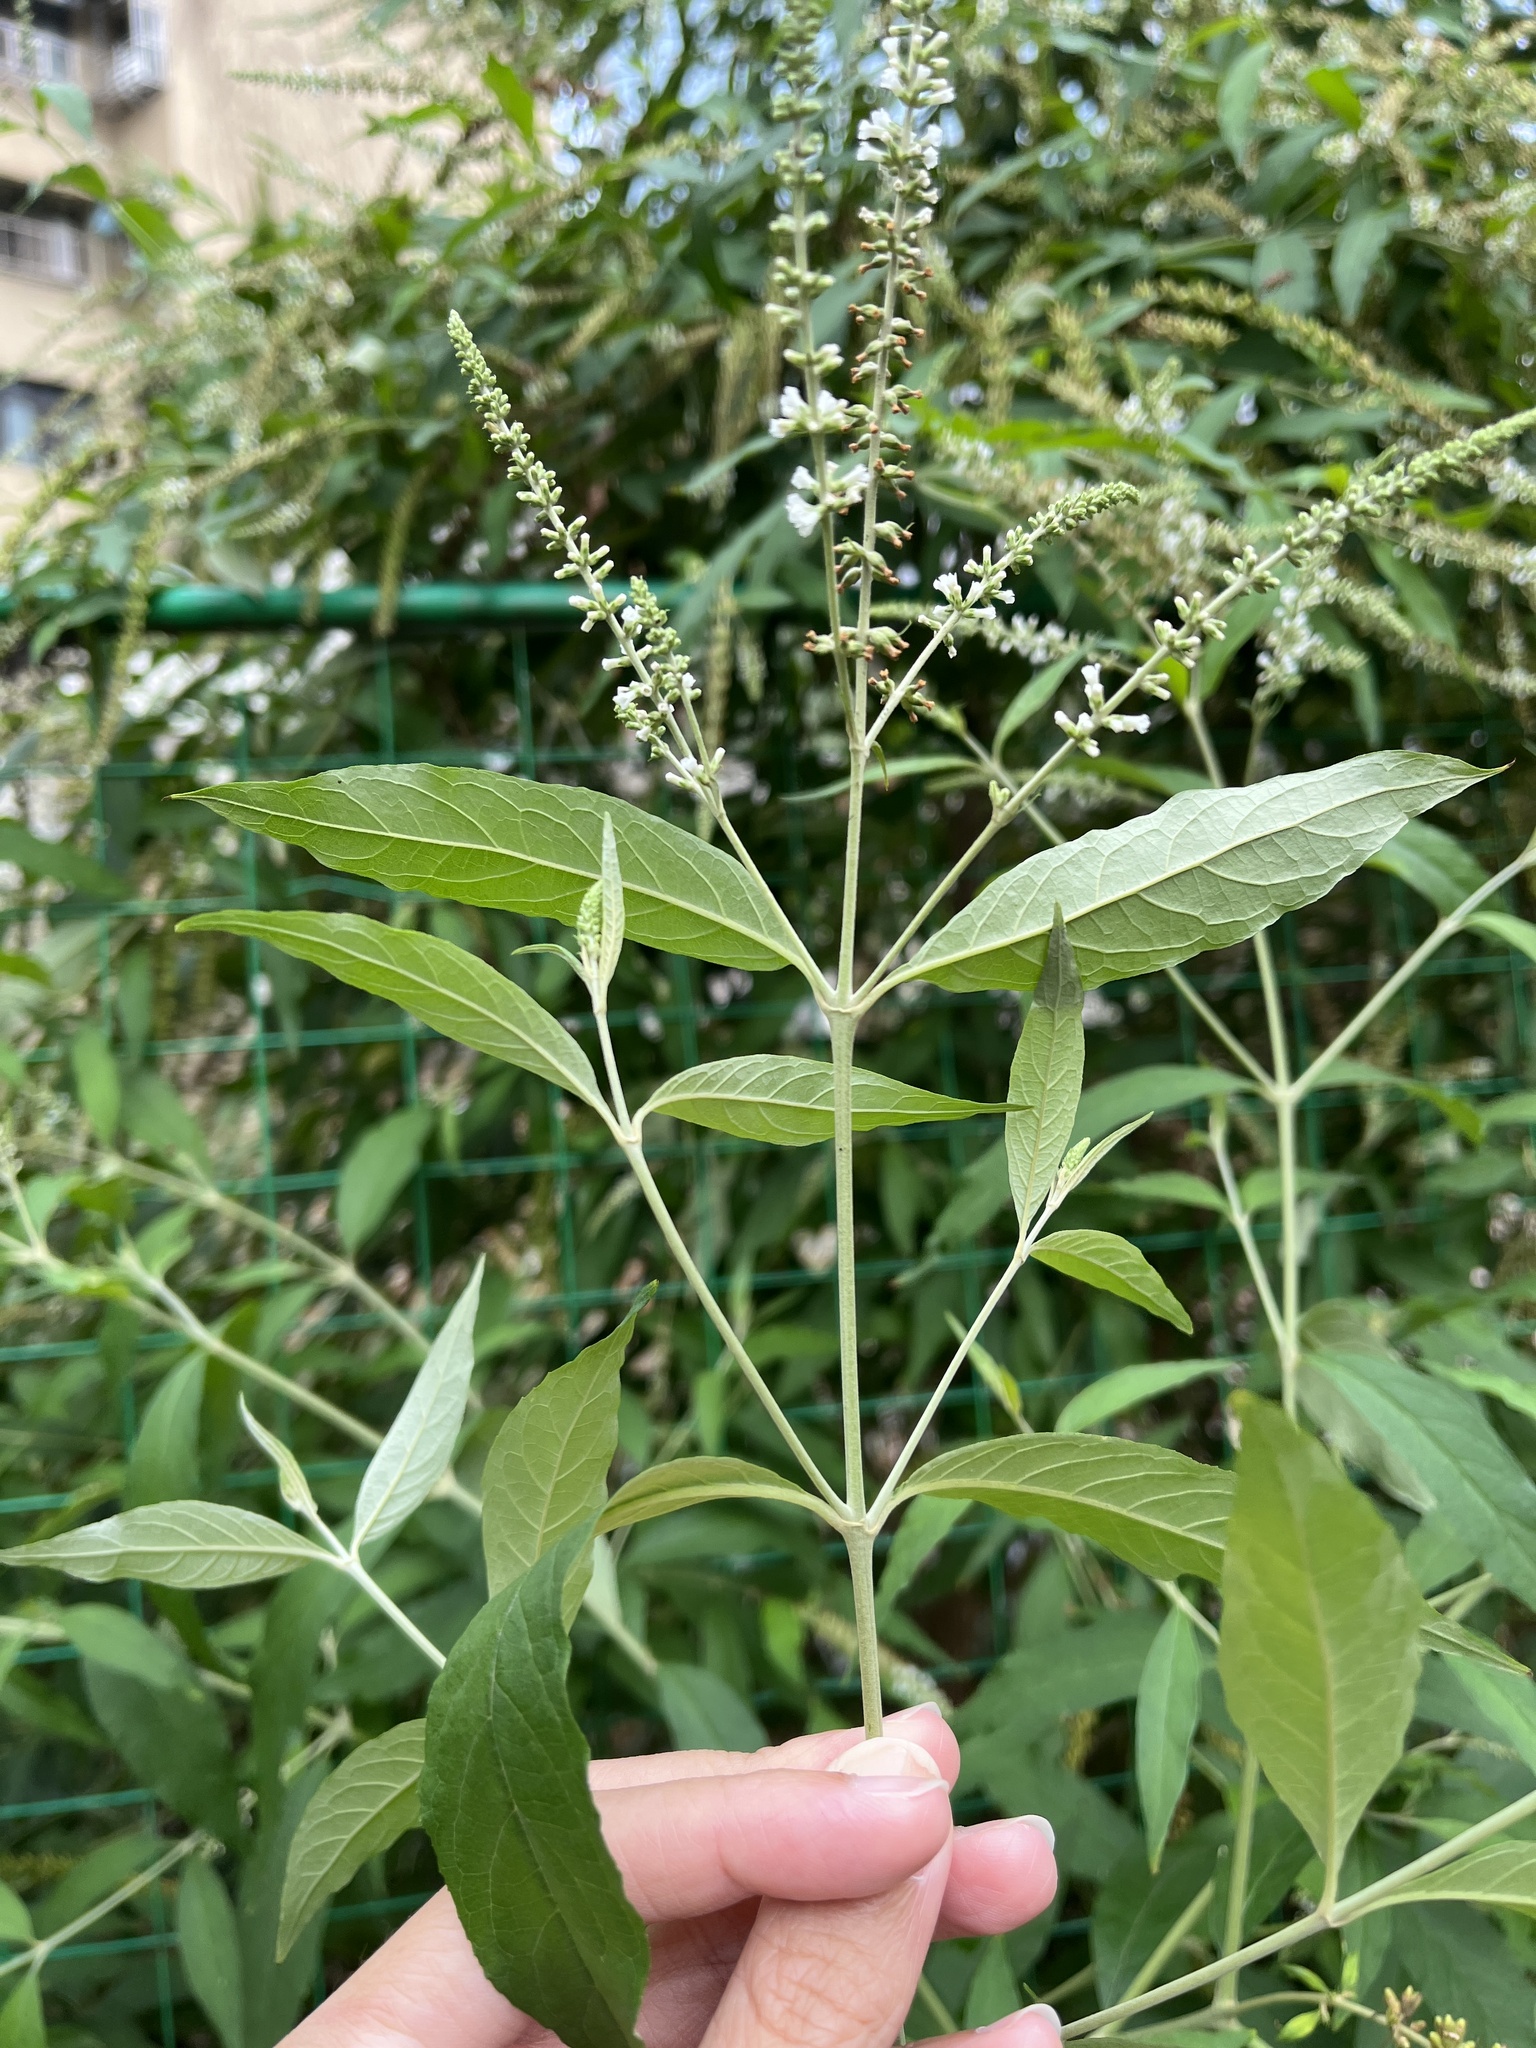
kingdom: Plantae
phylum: Tracheophyta
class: Magnoliopsida
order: Lamiales
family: Scrophulariaceae
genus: Buddleja
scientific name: Buddleja asiatica
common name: Dog tail
